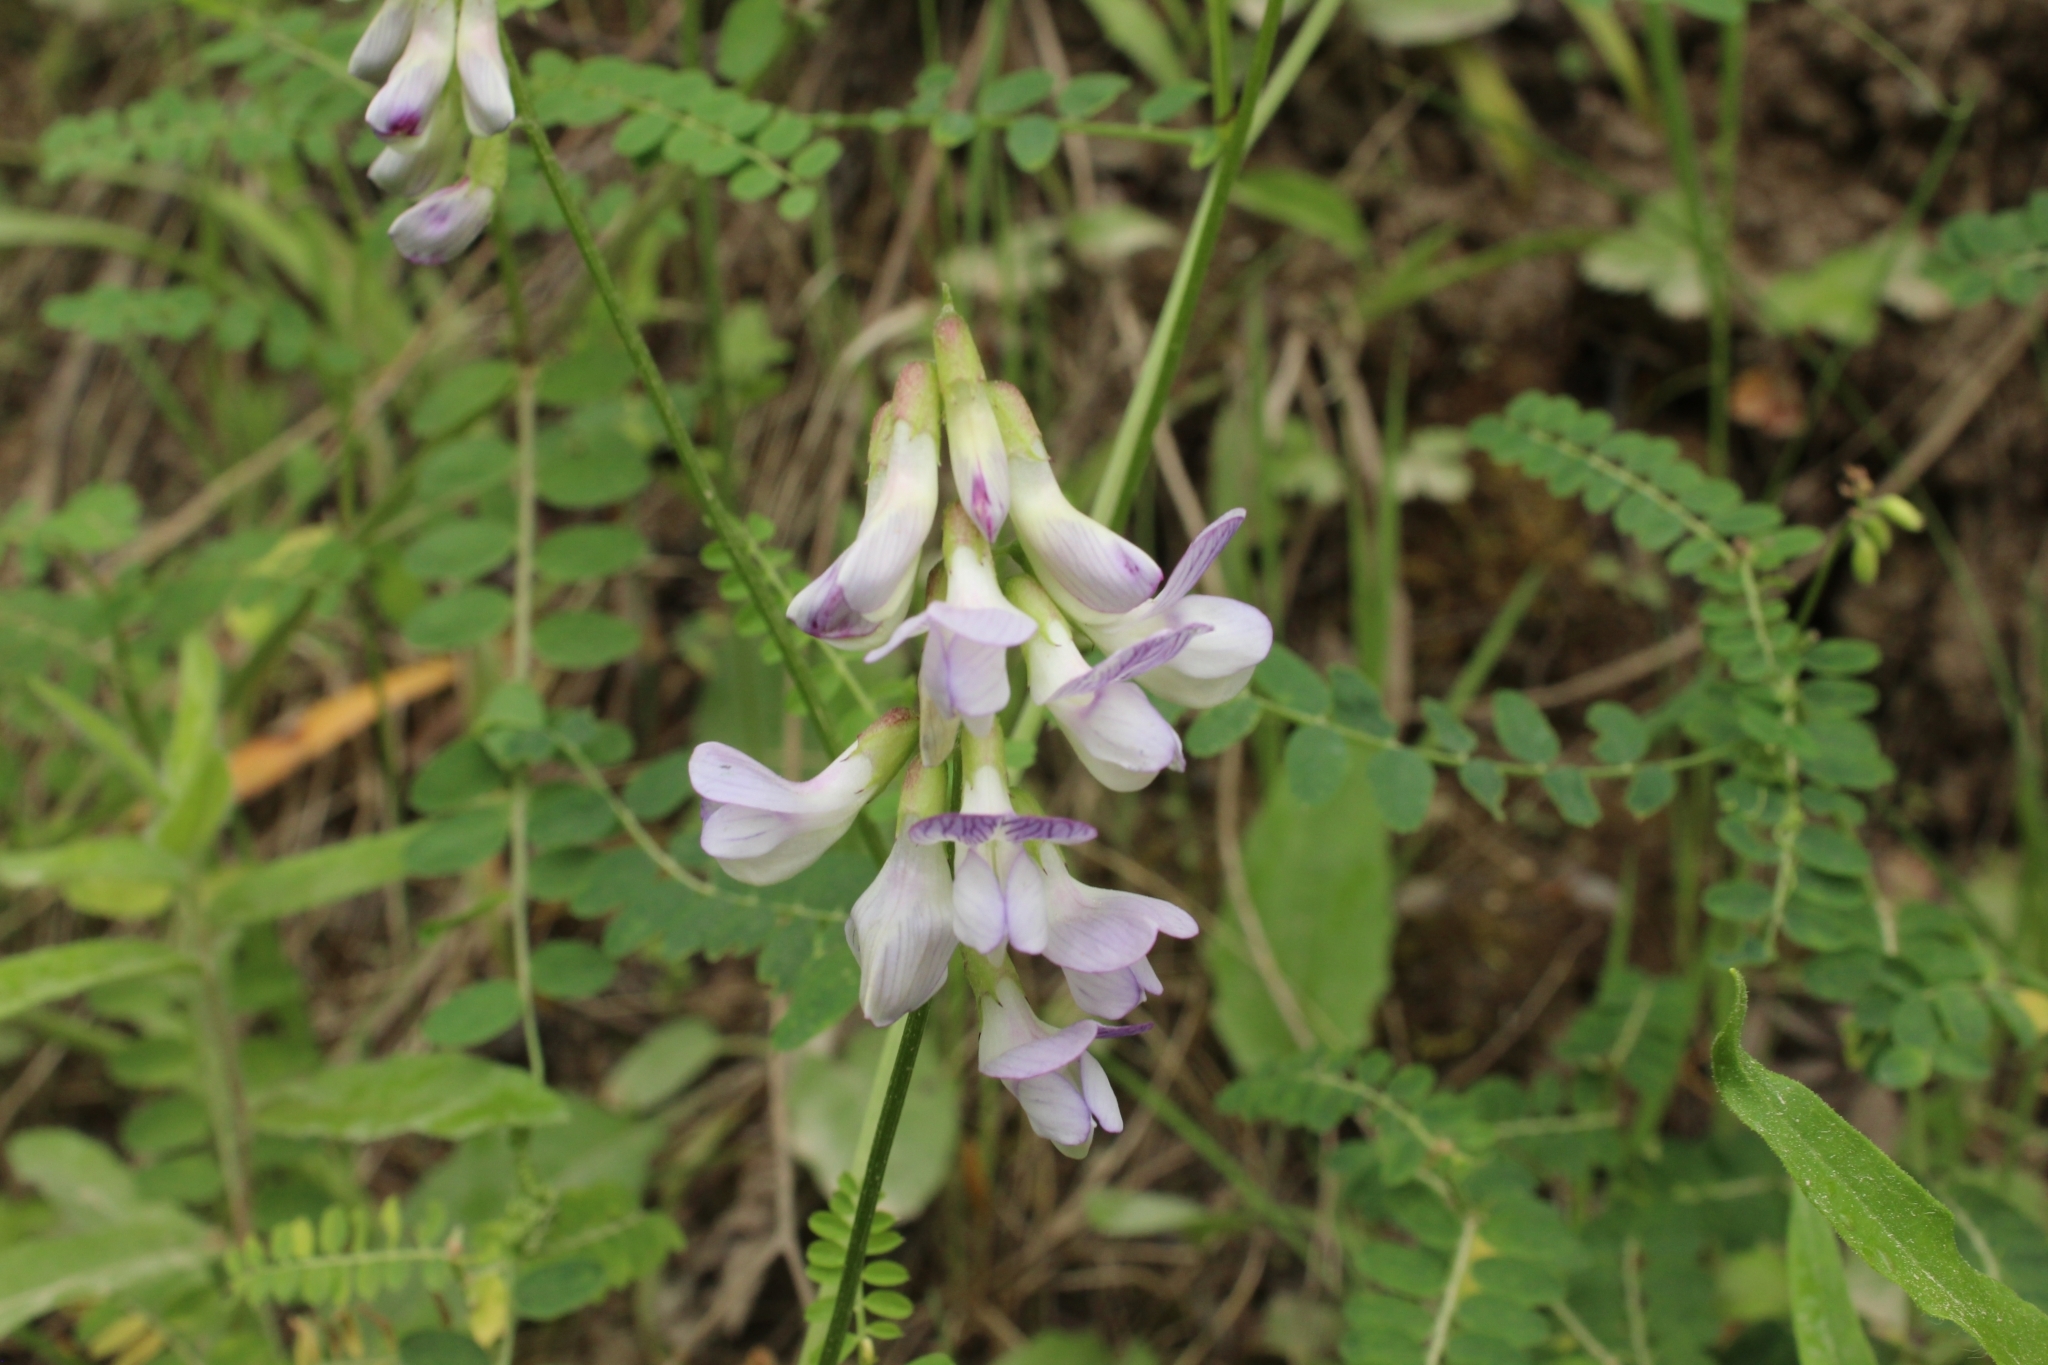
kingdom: Plantae
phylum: Tracheophyta
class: Magnoliopsida
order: Fabales
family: Fabaceae
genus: Vicia
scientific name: Vicia sylvatica
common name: Wood vetch
